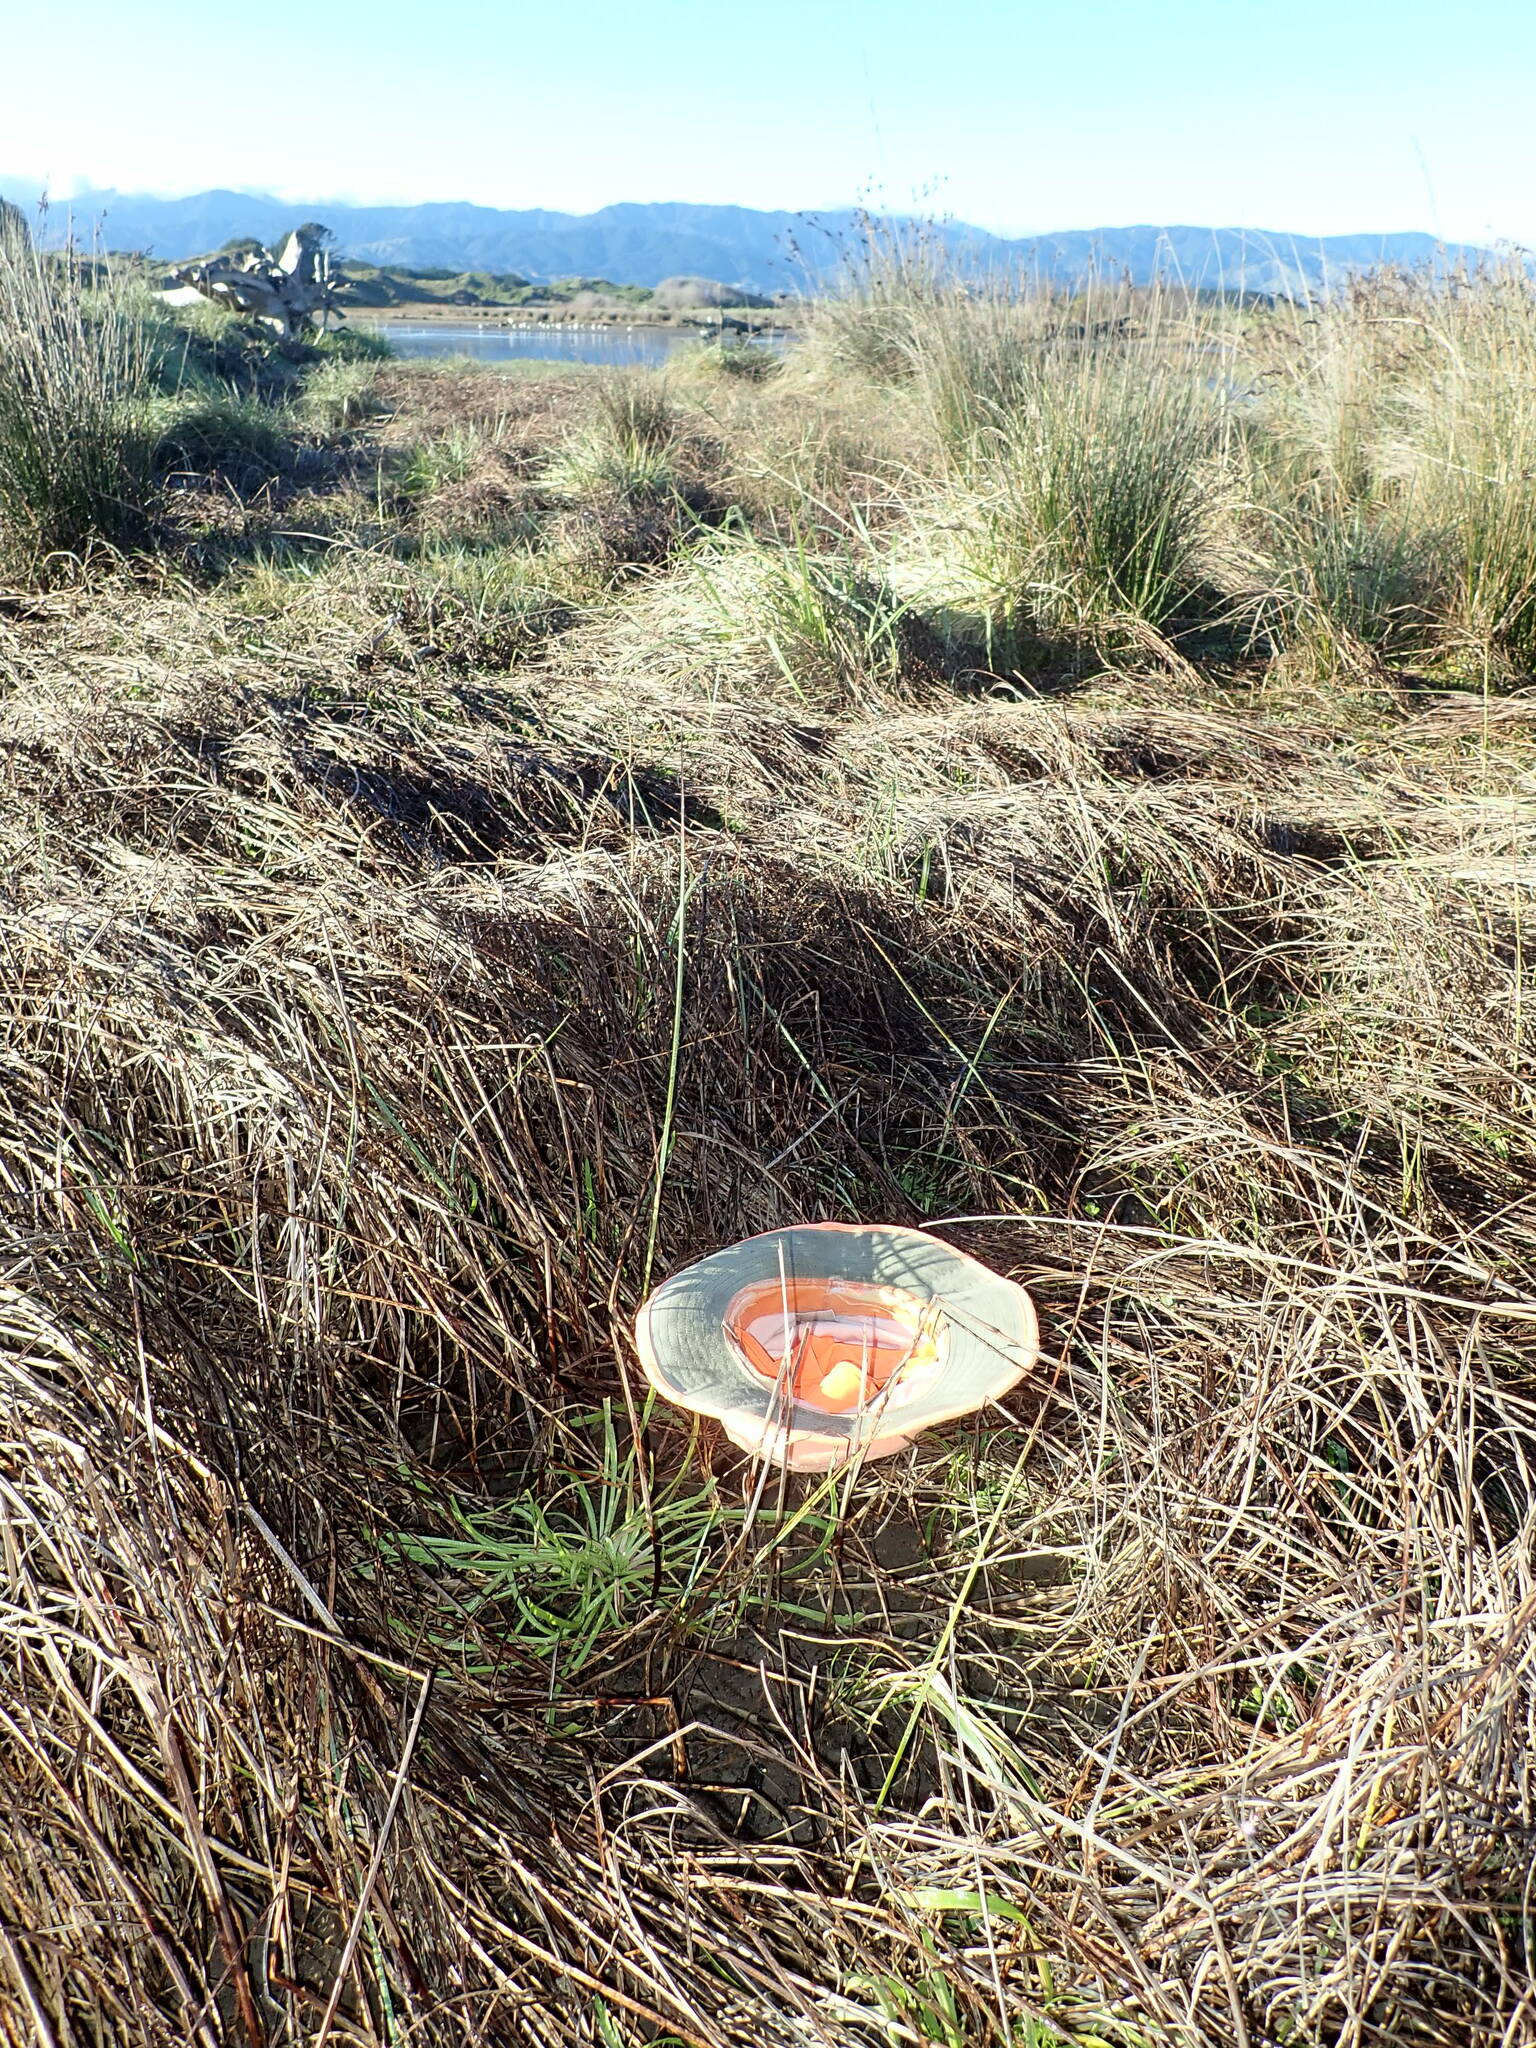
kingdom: Plantae
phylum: Tracheophyta
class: Magnoliopsida
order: Lamiales
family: Plantaginaceae
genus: Plantago
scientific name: Plantago coronopus
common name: Buck's-horn plantain
